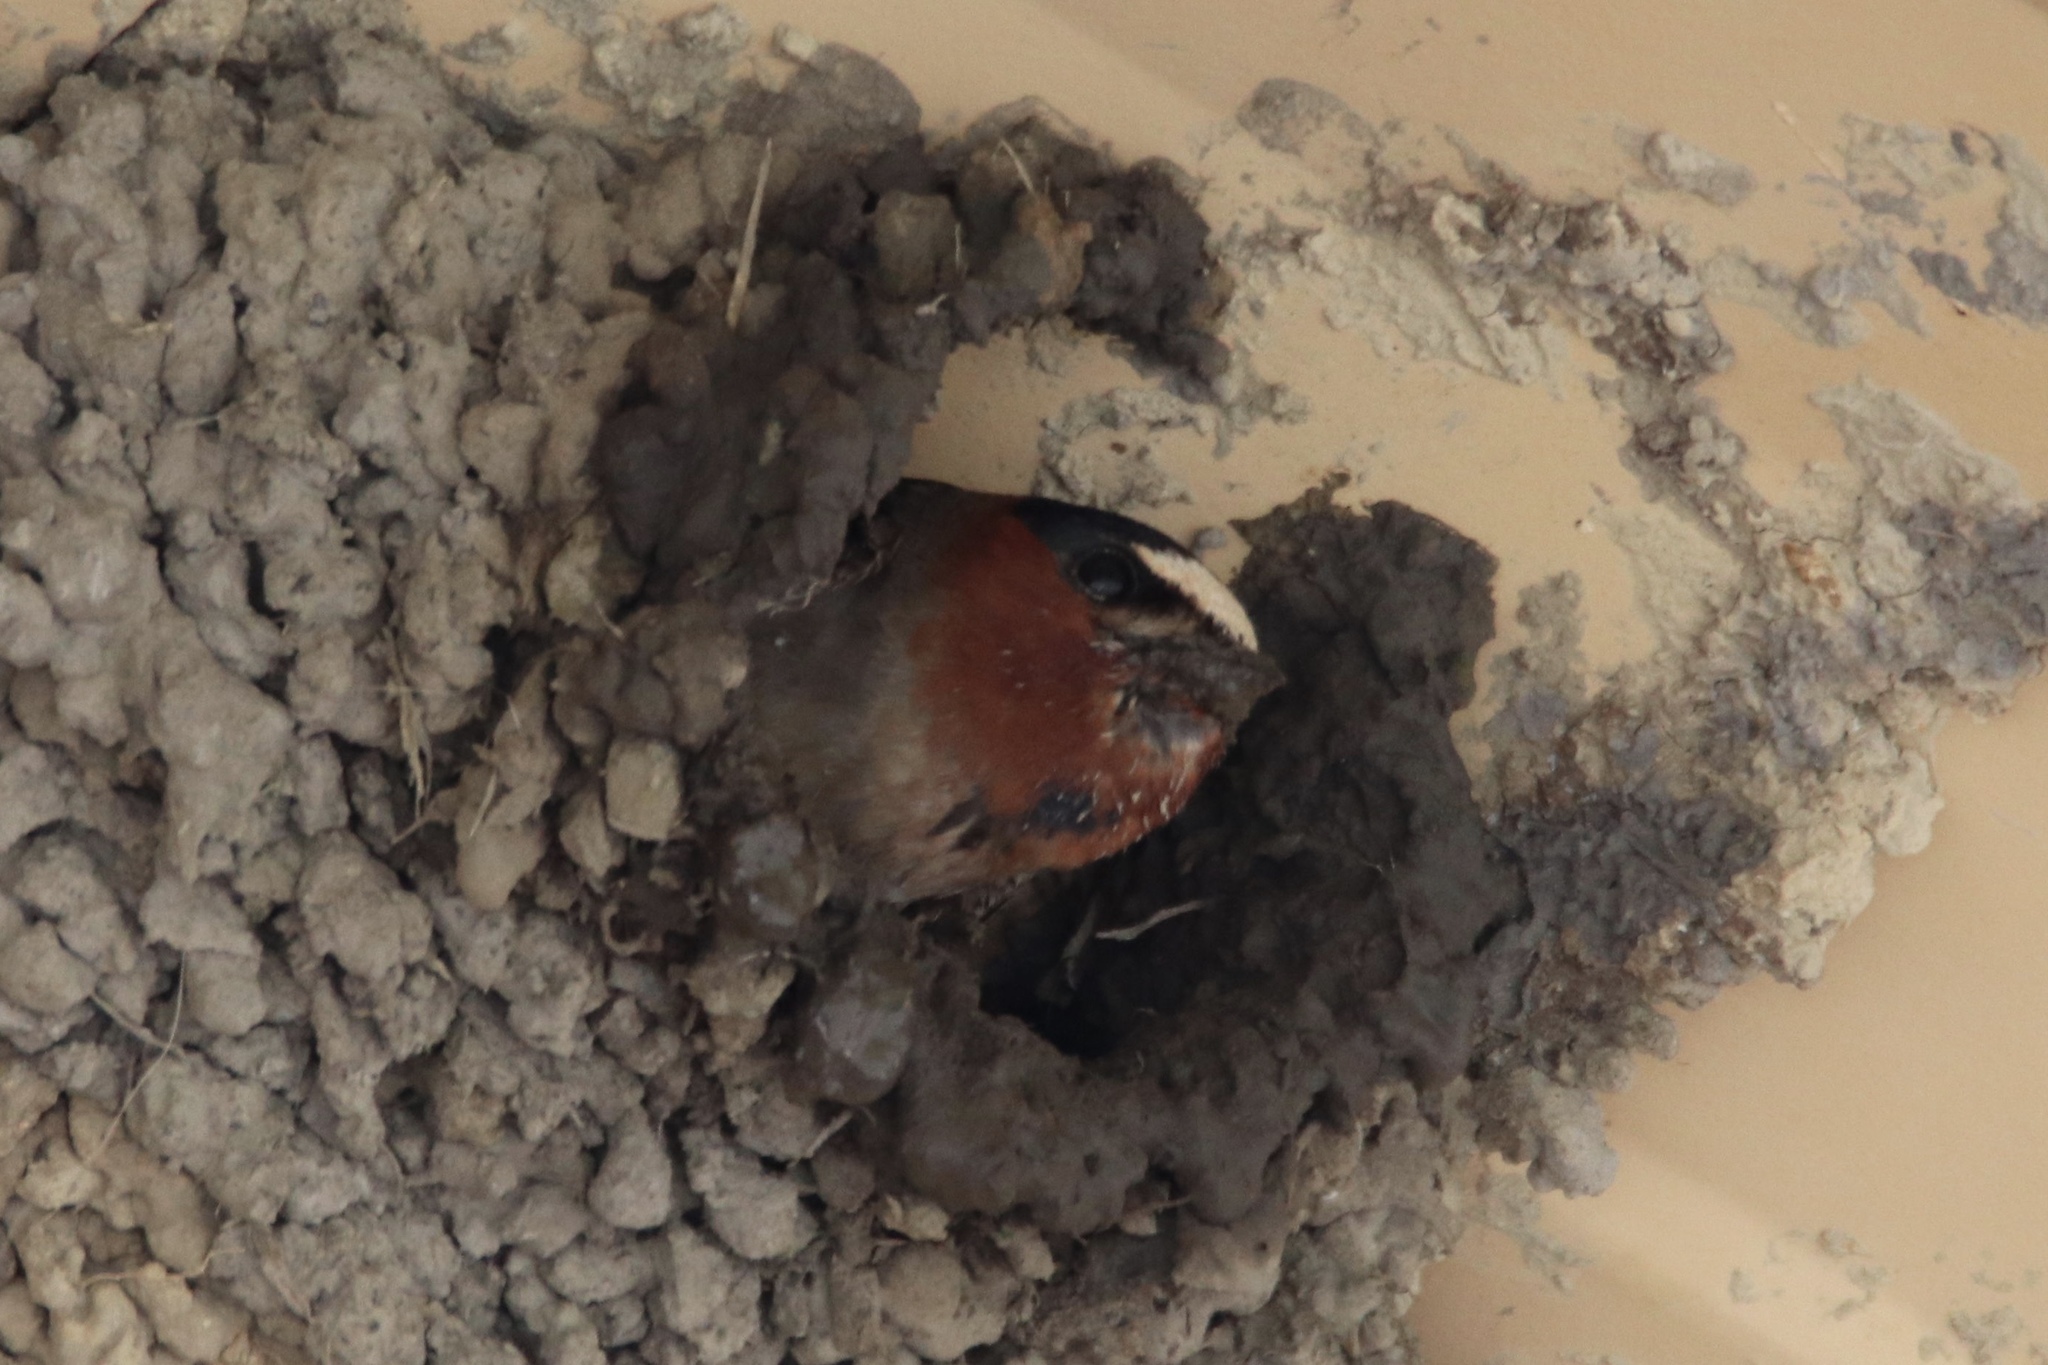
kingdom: Animalia
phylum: Chordata
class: Aves
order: Passeriformes
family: Hirundinidae
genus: Petrochelidon
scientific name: Petrochelidon pyrrhonota
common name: American cliff swallow
